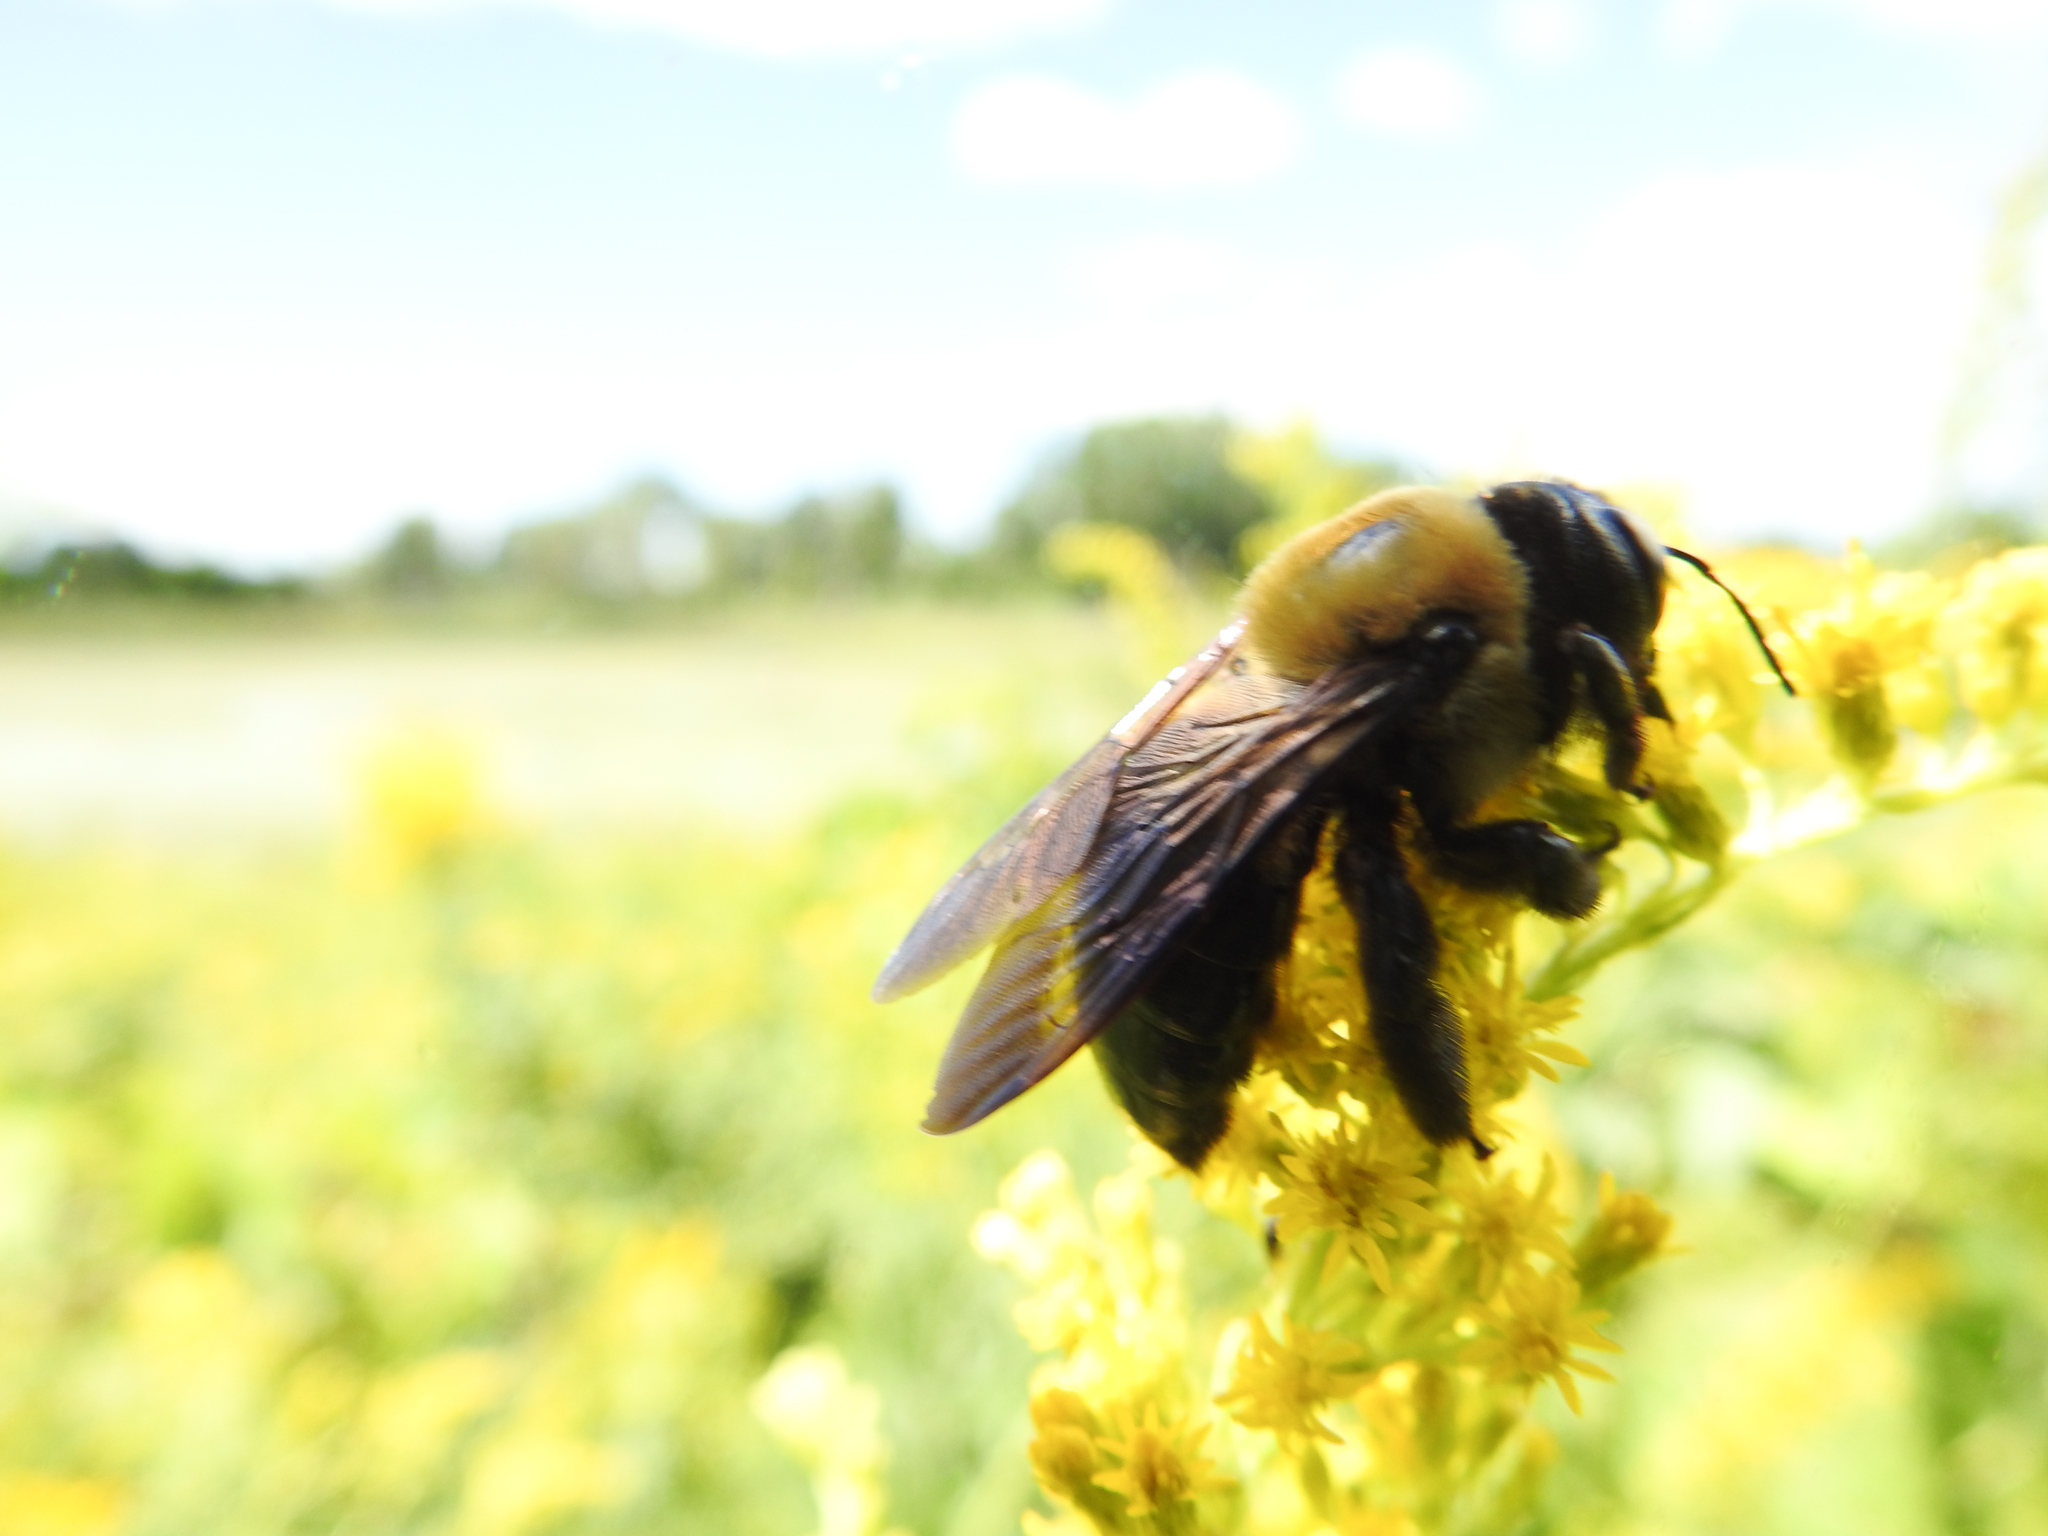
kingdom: Animalia
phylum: Arthropoda
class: Insecta
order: Hymenoptera
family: Apidae
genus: Xylocopa
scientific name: Xylocopa virginica
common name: Carpenter bee
